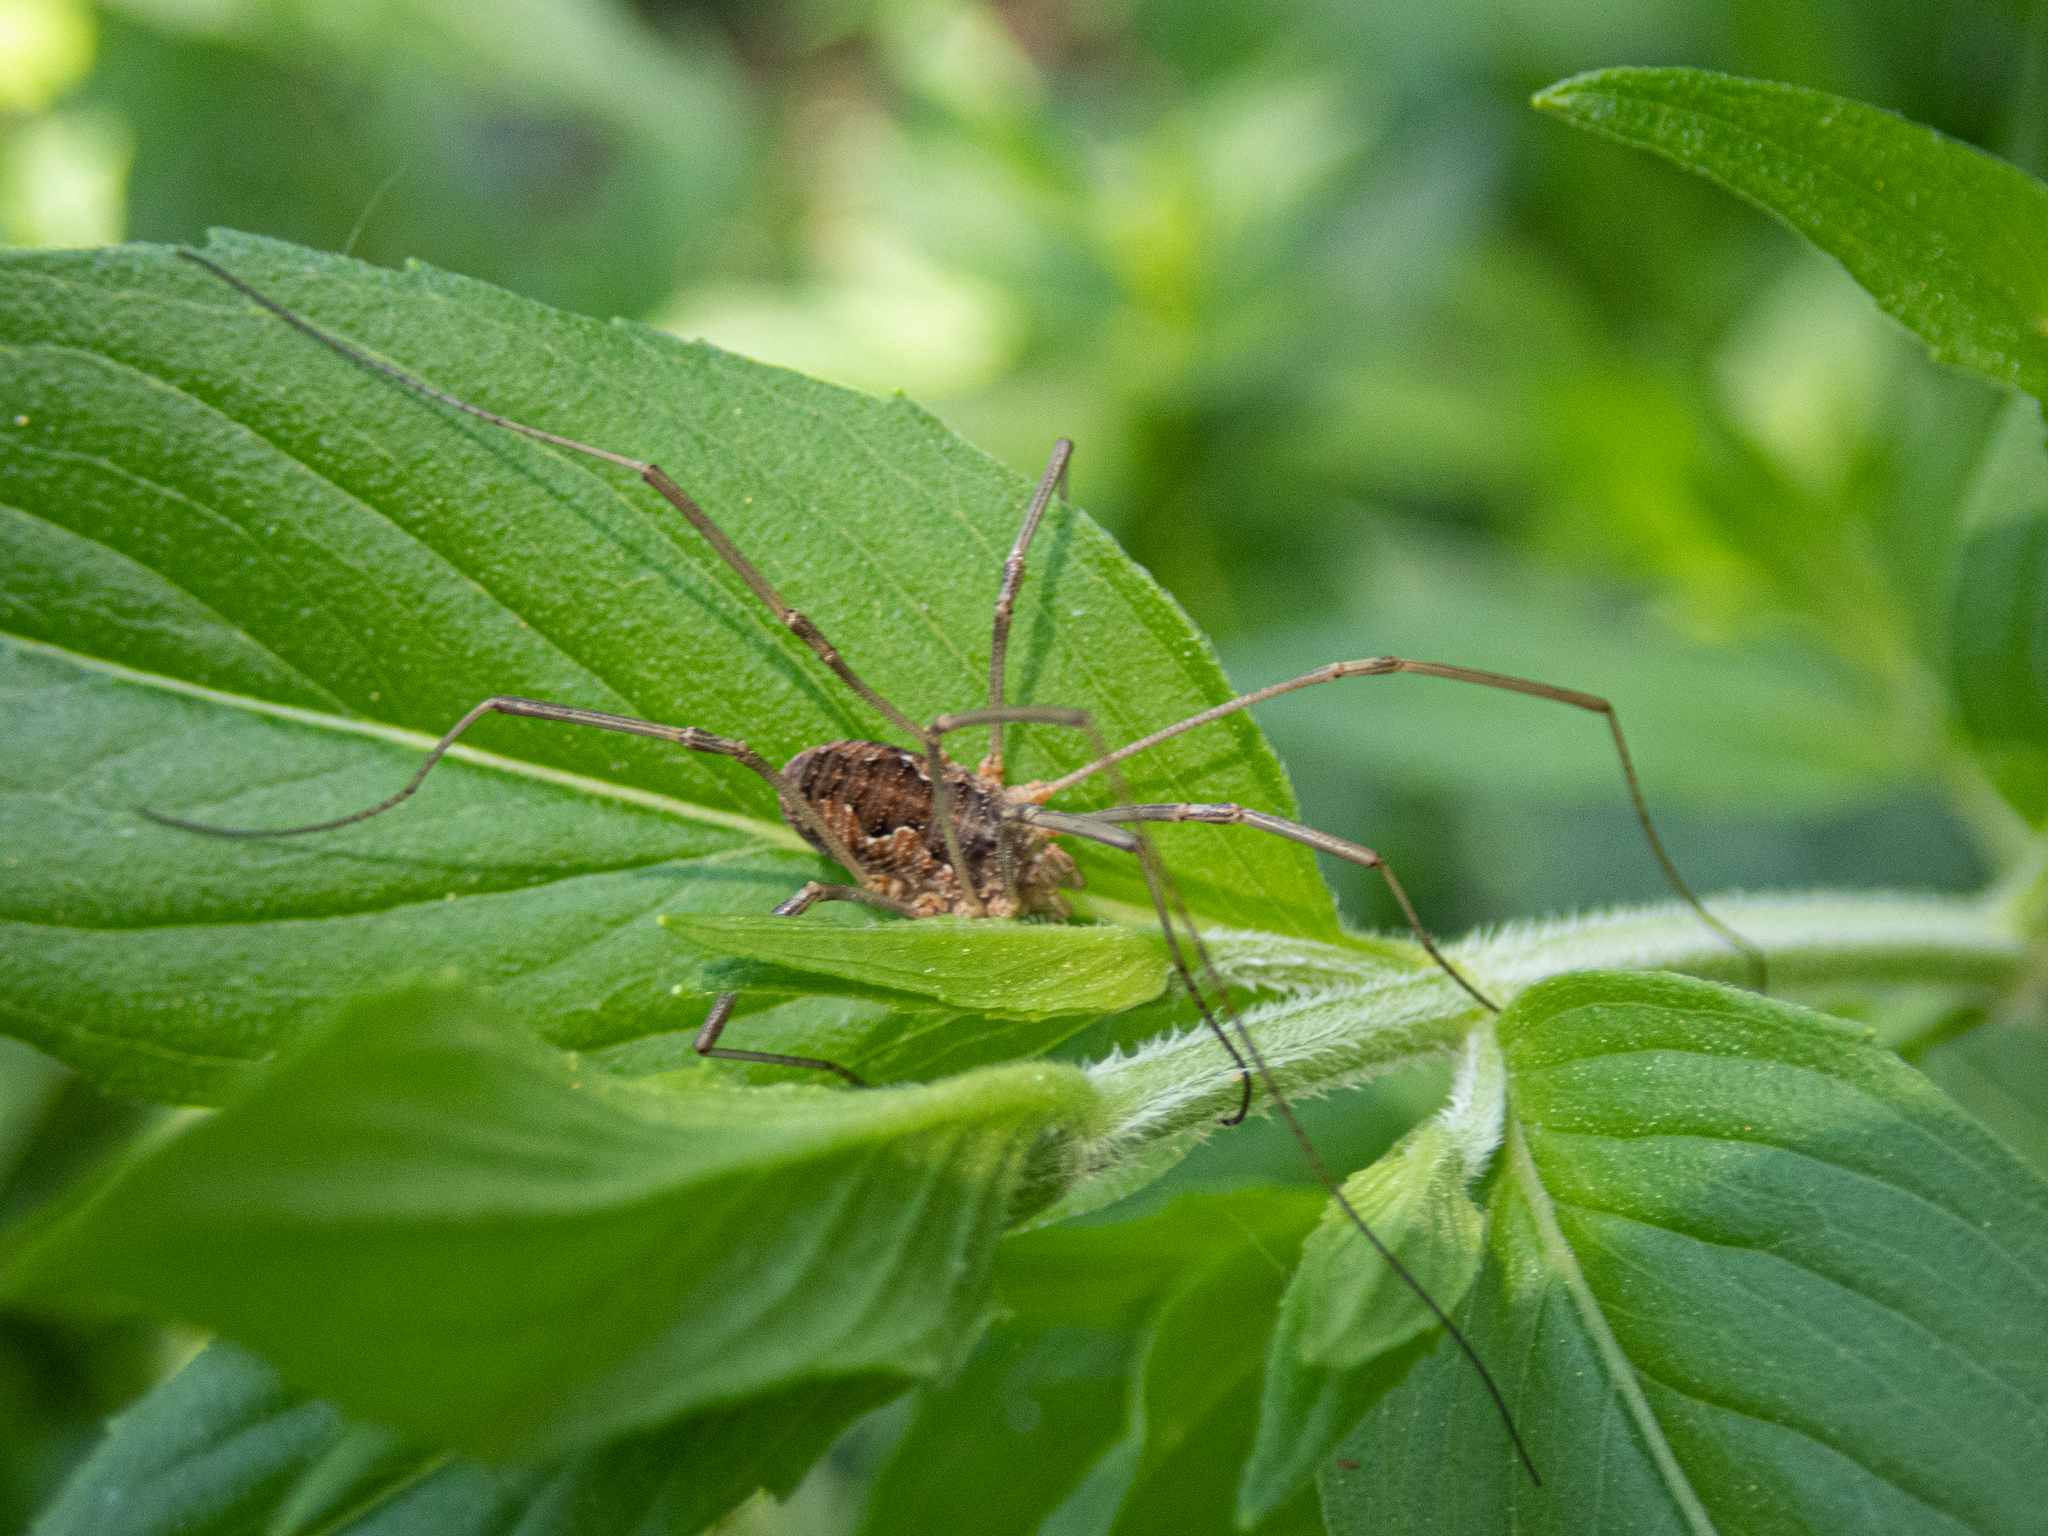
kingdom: Animalia
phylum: Arthropoda
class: Arachnida
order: Opiliones
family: Phalangiidae
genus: Phalangium
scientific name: Phalangium opilio
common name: Daddy longleg
